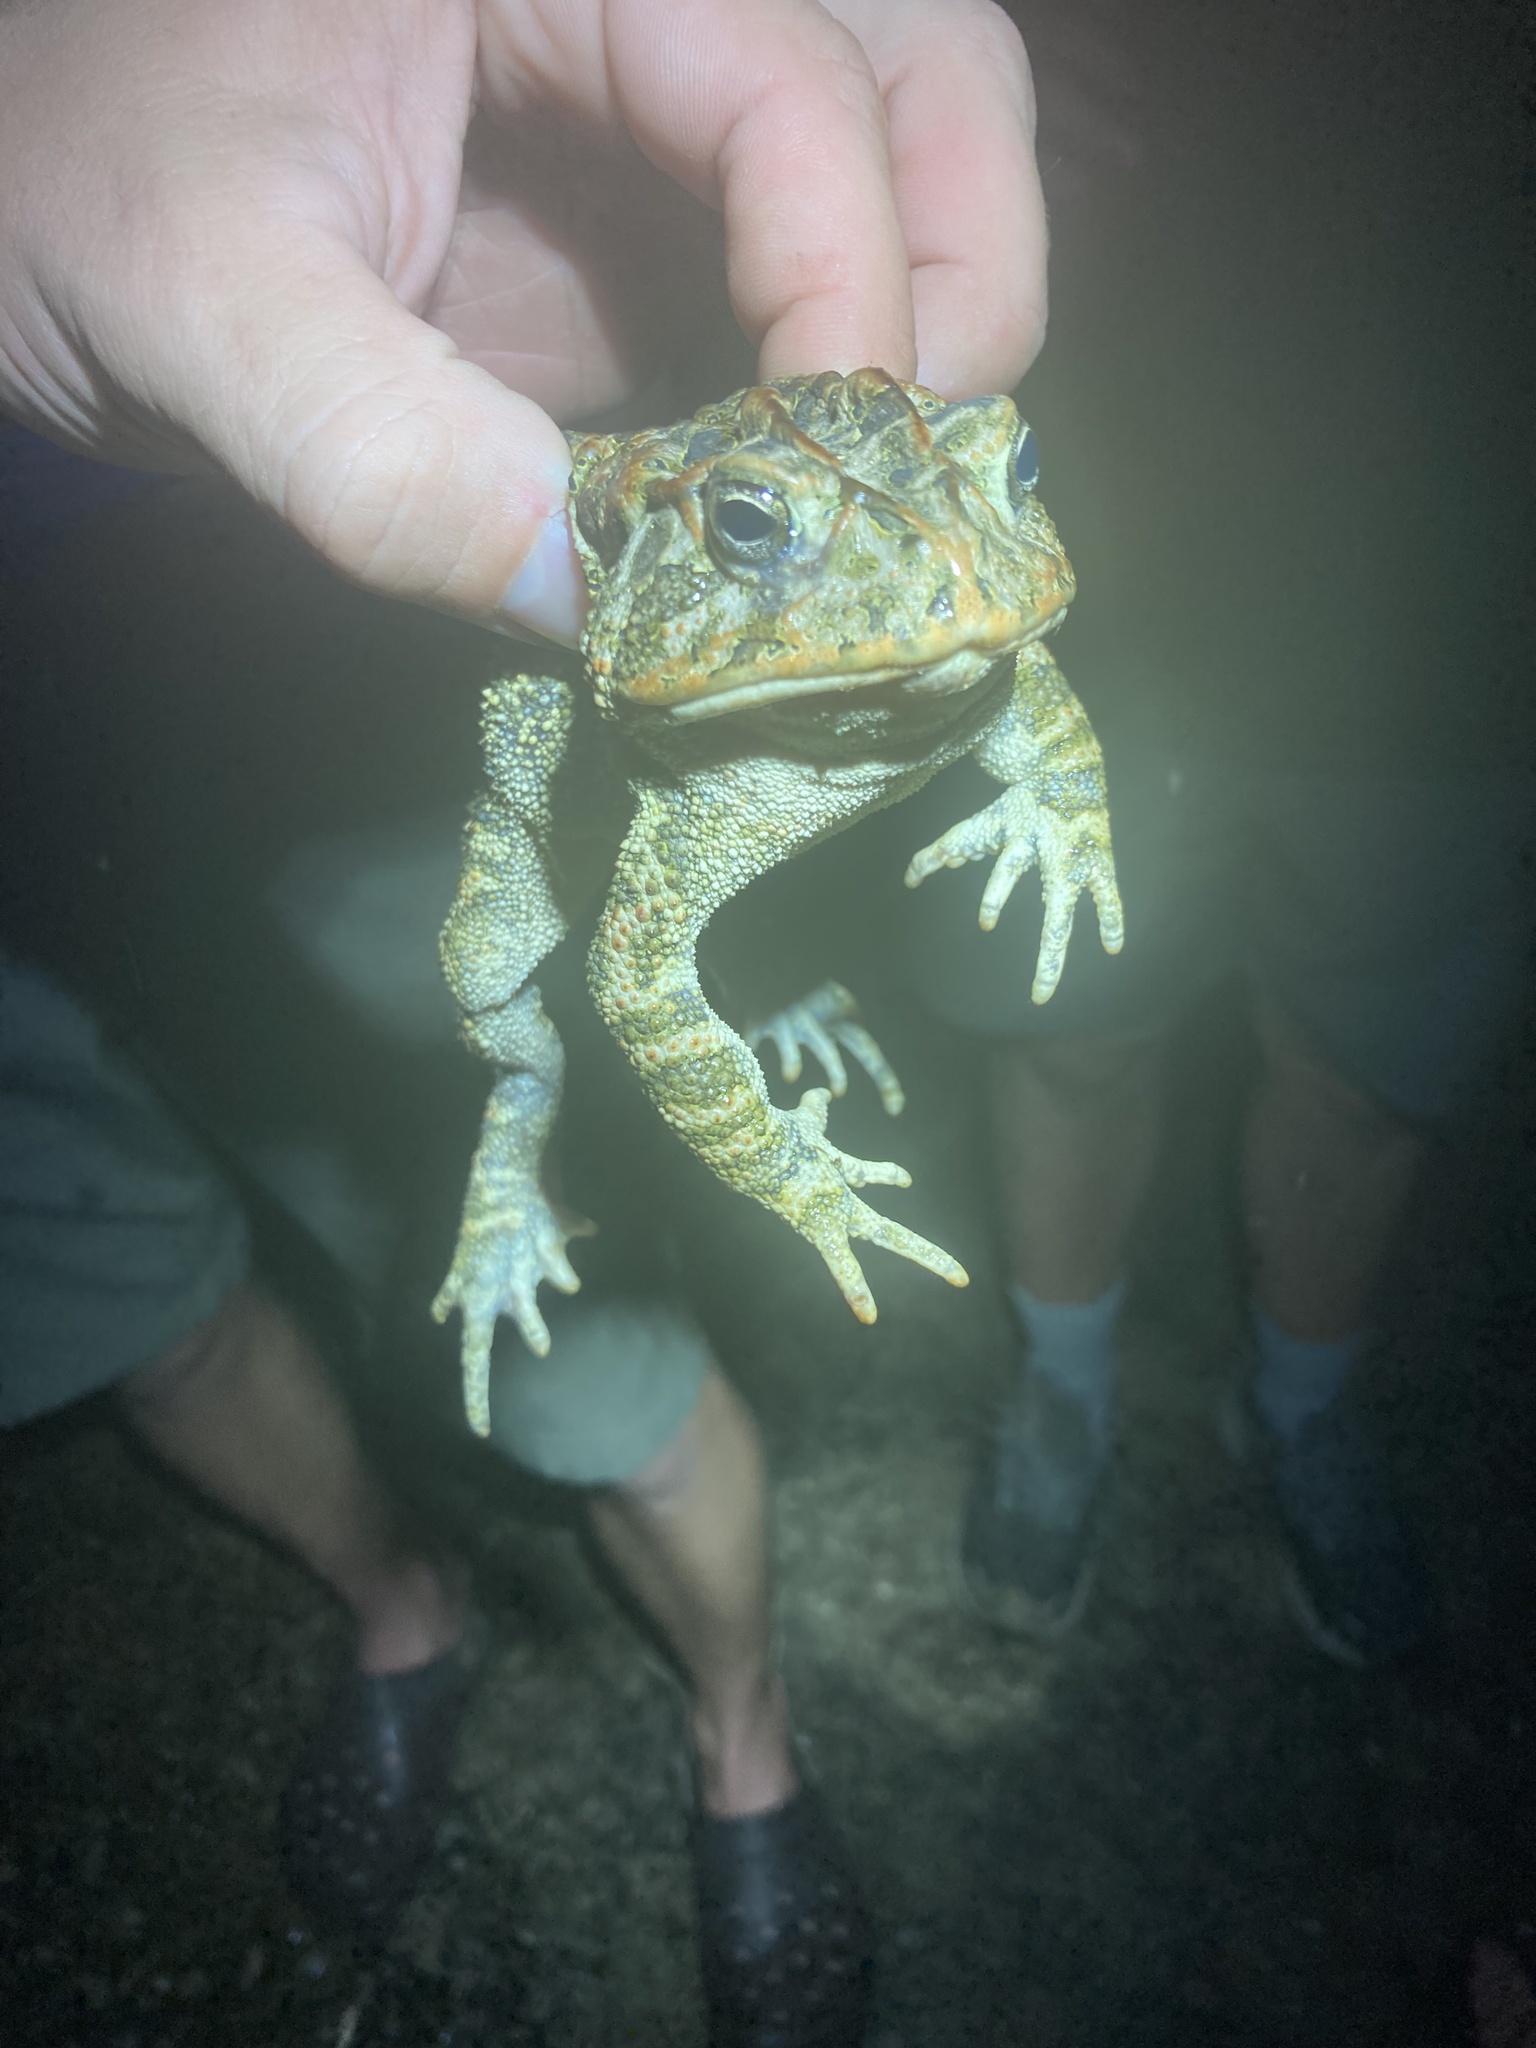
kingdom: Animalia
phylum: Chordata
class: Amphibia
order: Anura
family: Bufonidae
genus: Anaxyrus
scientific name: Anaxyrus terrestris
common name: Southern toad
